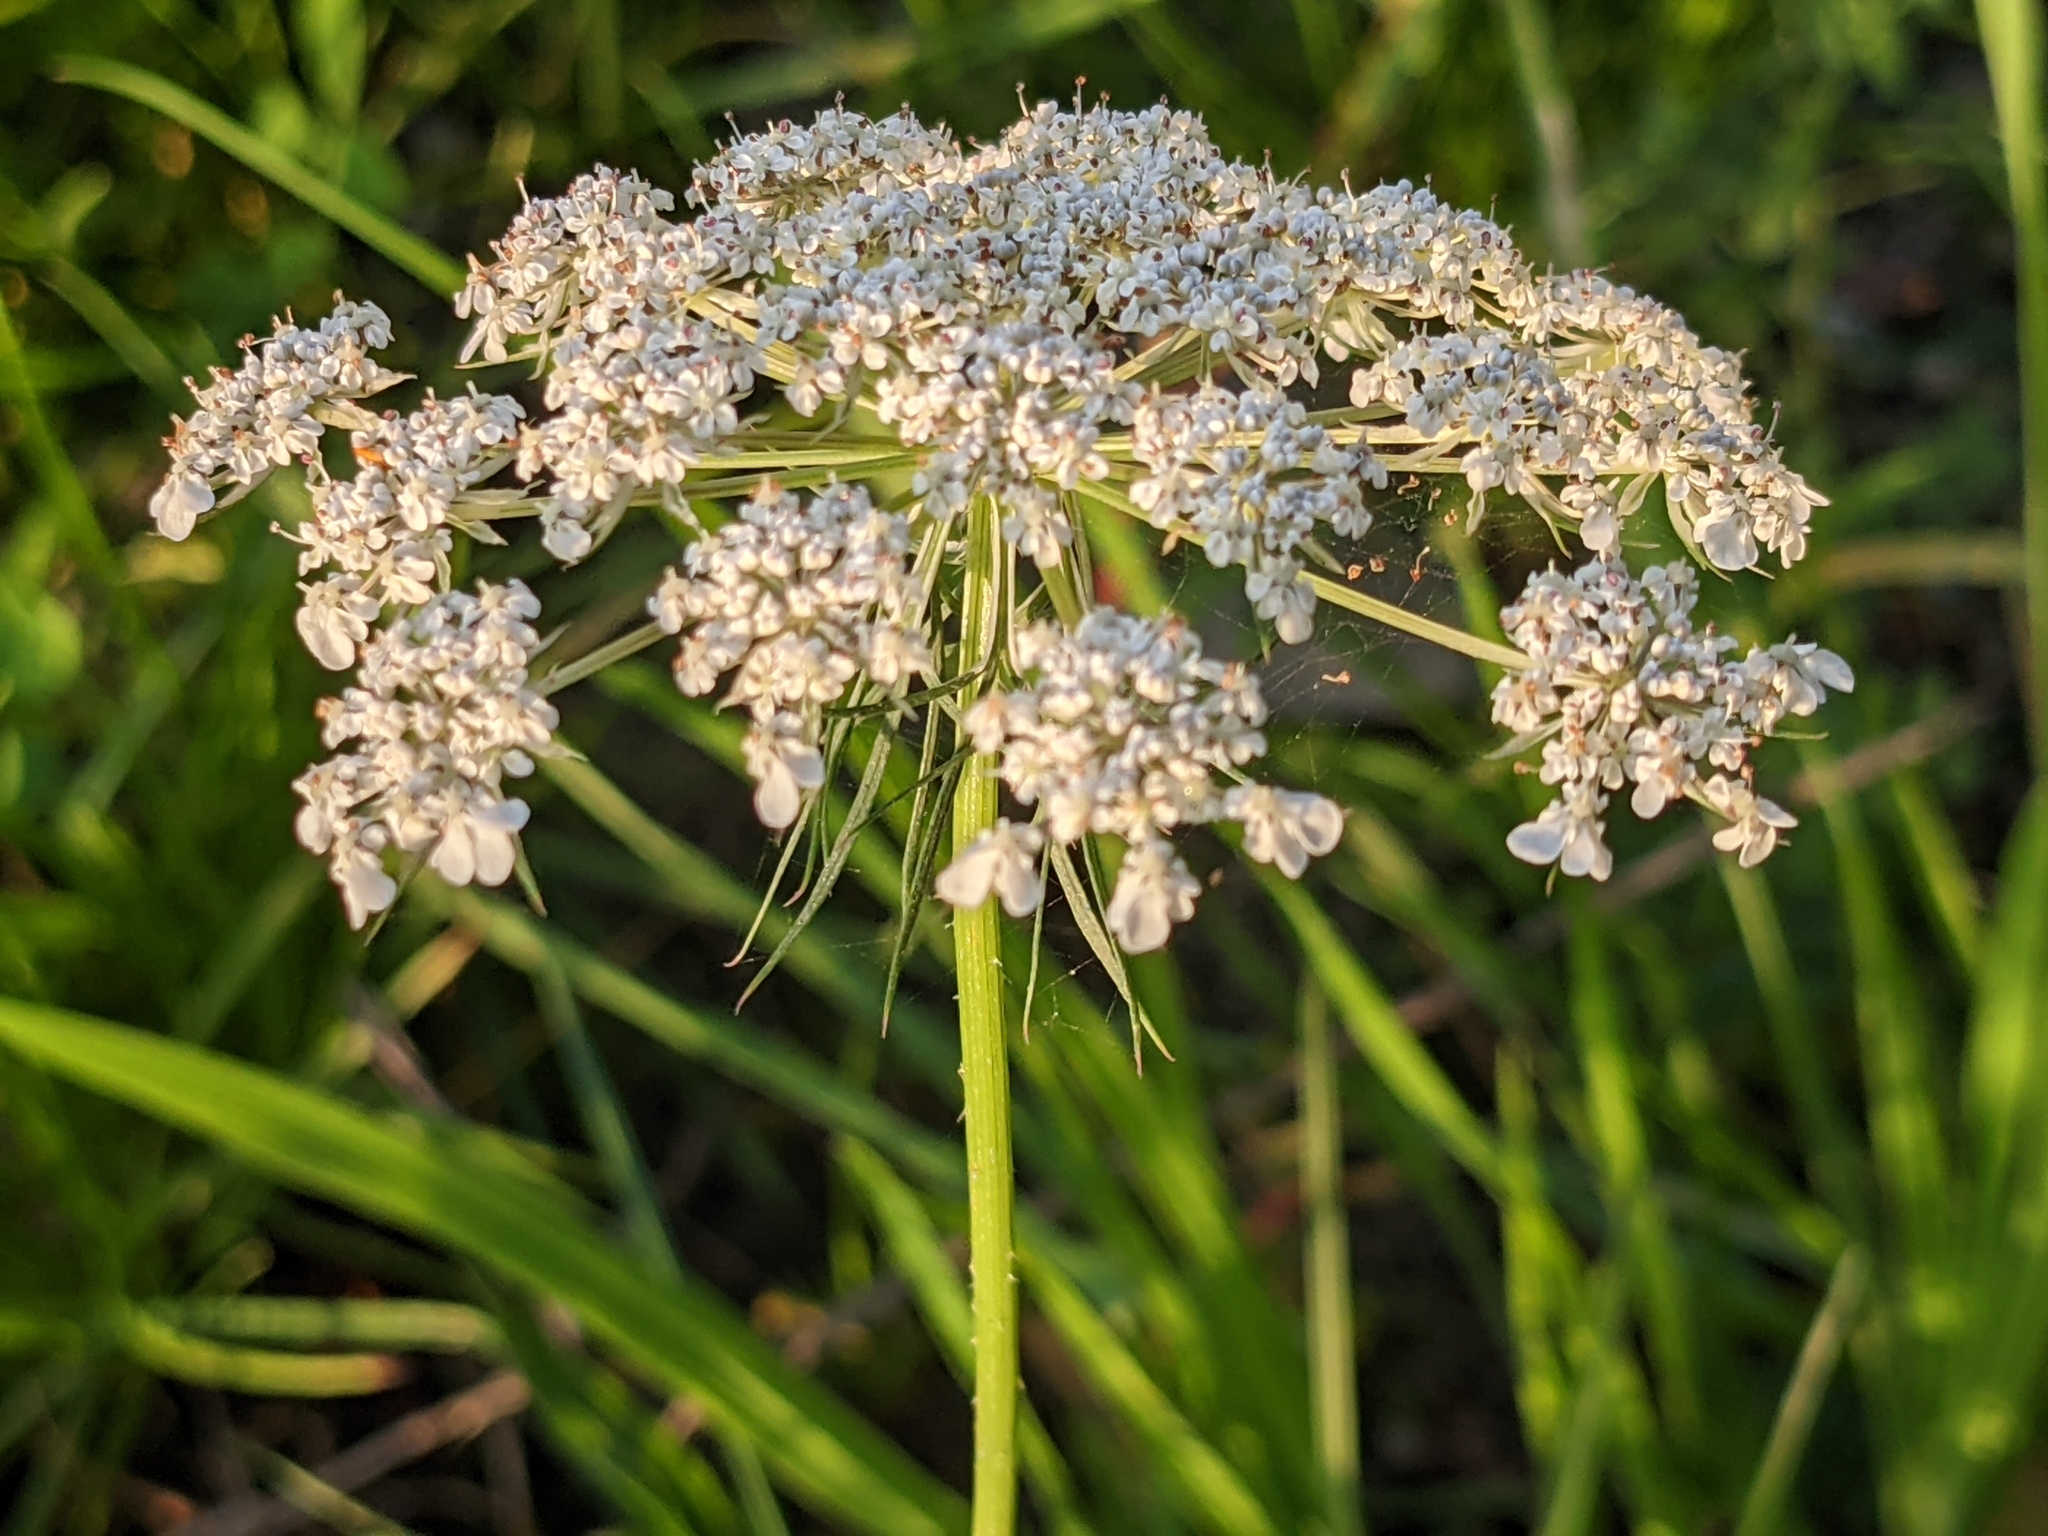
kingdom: Plantae
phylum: Tracheophyta
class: Magnoliopsida
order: Apiales
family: Apiaceae
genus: Daucus
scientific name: Daucus carota
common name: Wild carrot
